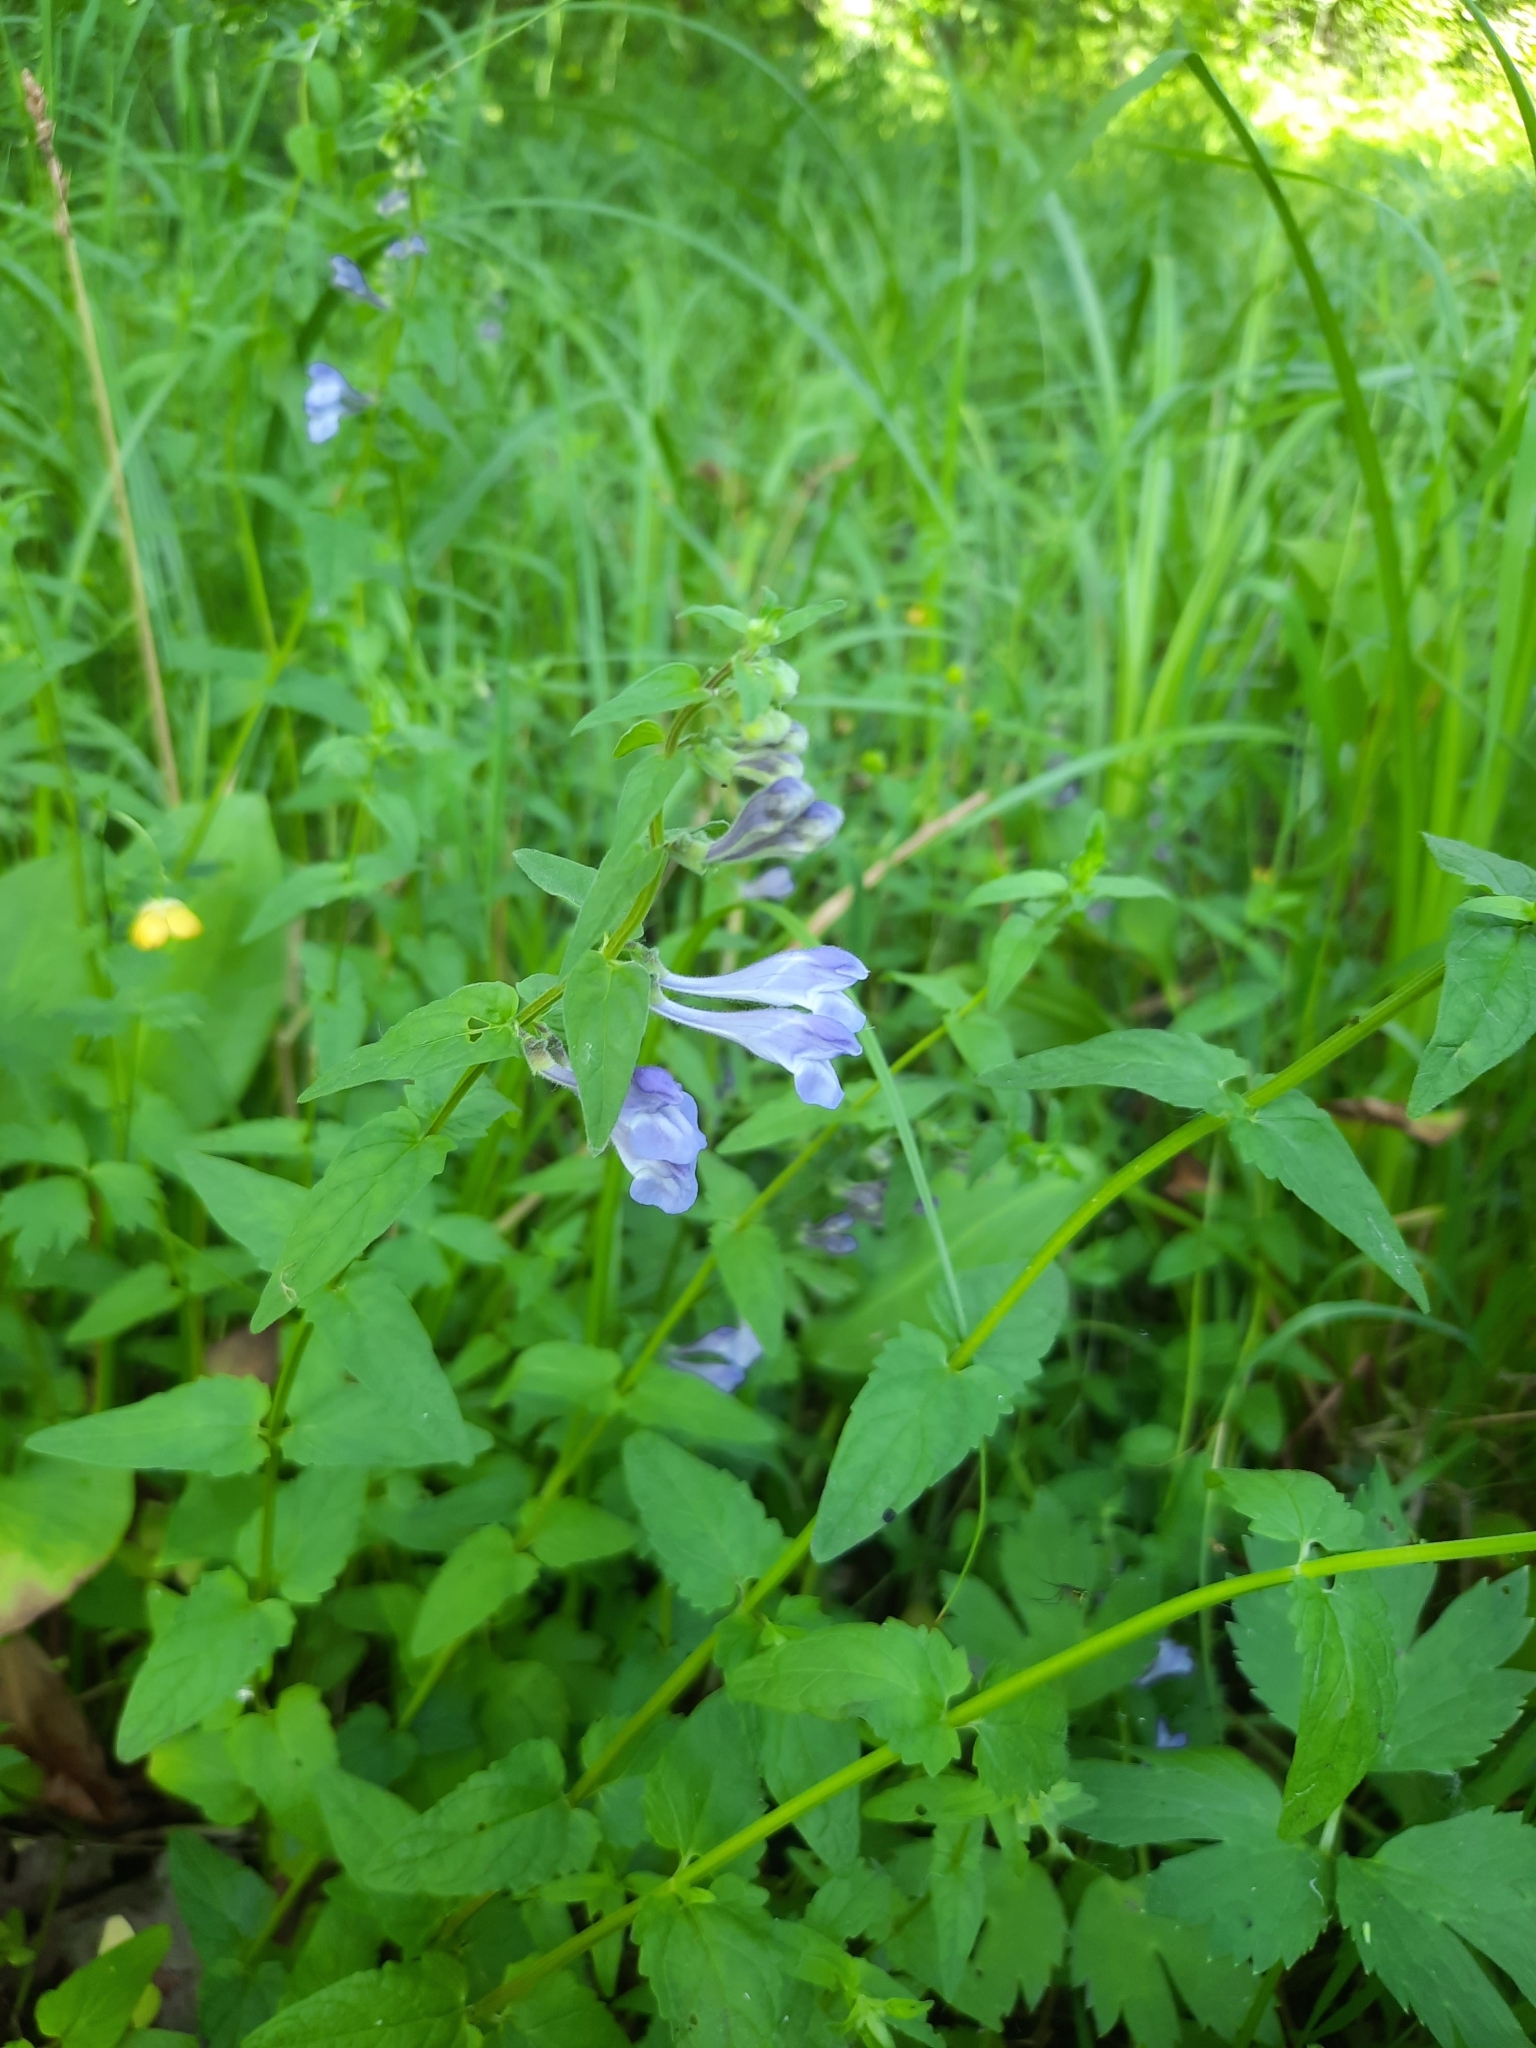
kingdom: Plantae
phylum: Tracheophyta
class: Magnoliopsida
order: Lamiales
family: Lamiaceae
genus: Scutellaria
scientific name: Scutellaria galericulata
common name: Skullcap
